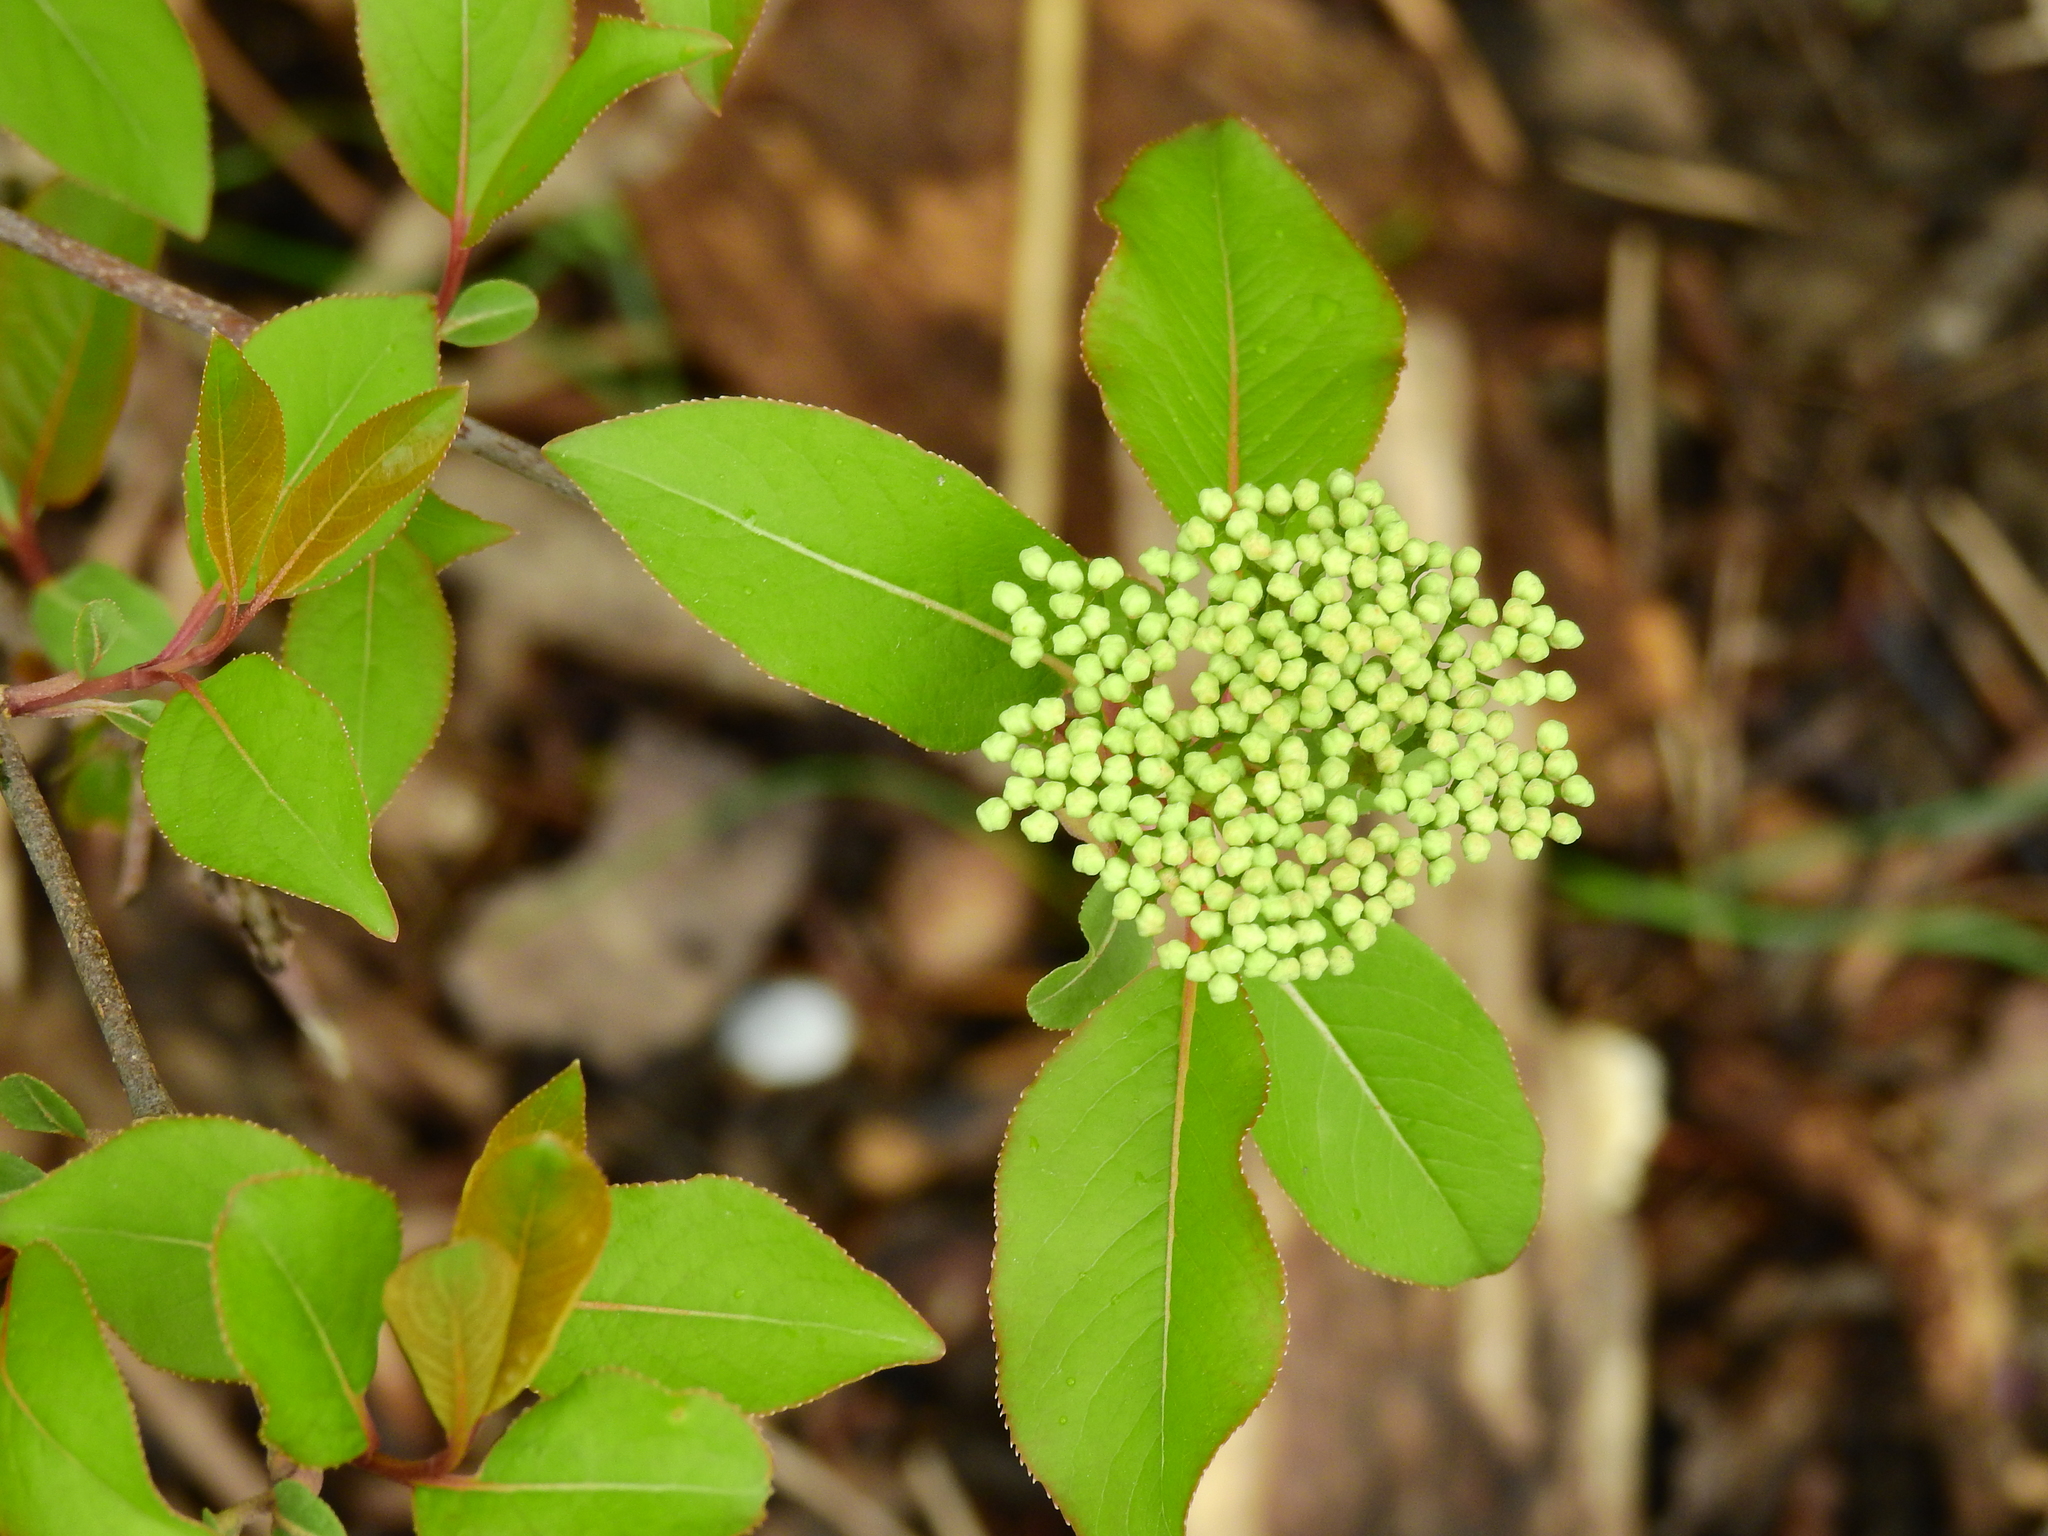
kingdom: Plantae
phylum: Tracheophyta
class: Magnoliopsida
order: Dipsacales
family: Viburnaceae
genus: Viburnum
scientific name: Viburnum prunifolium
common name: Black haw
